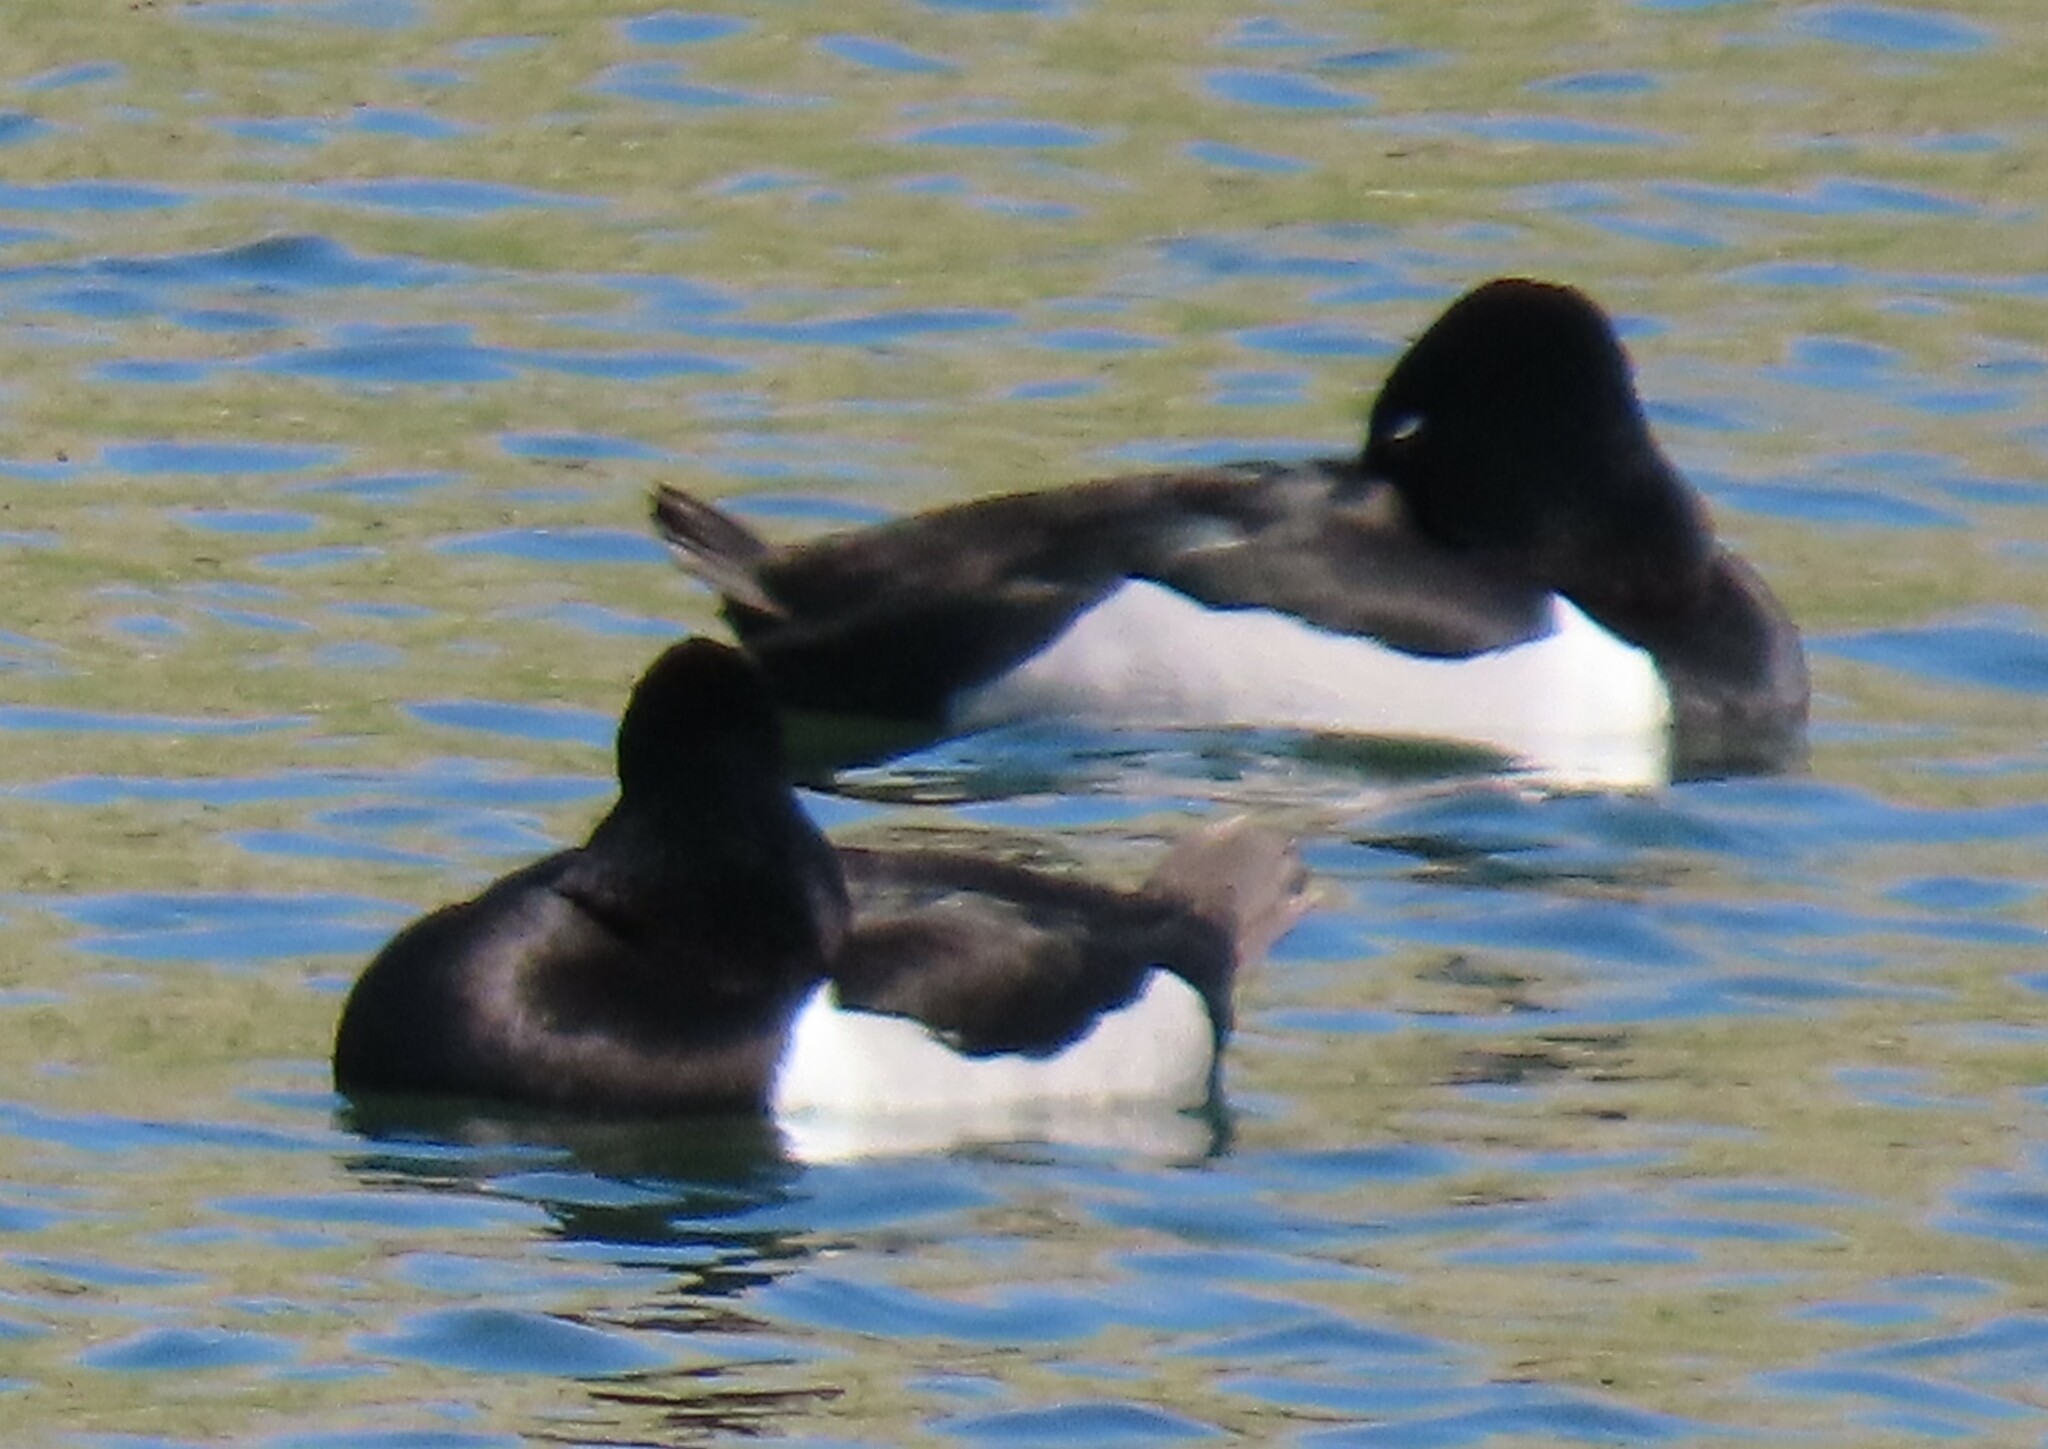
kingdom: Animalia
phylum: Chordata
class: Aves
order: Anseriformes
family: Anatidae
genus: Aythya
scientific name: Aythya collaris
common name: Ring-necked duck
